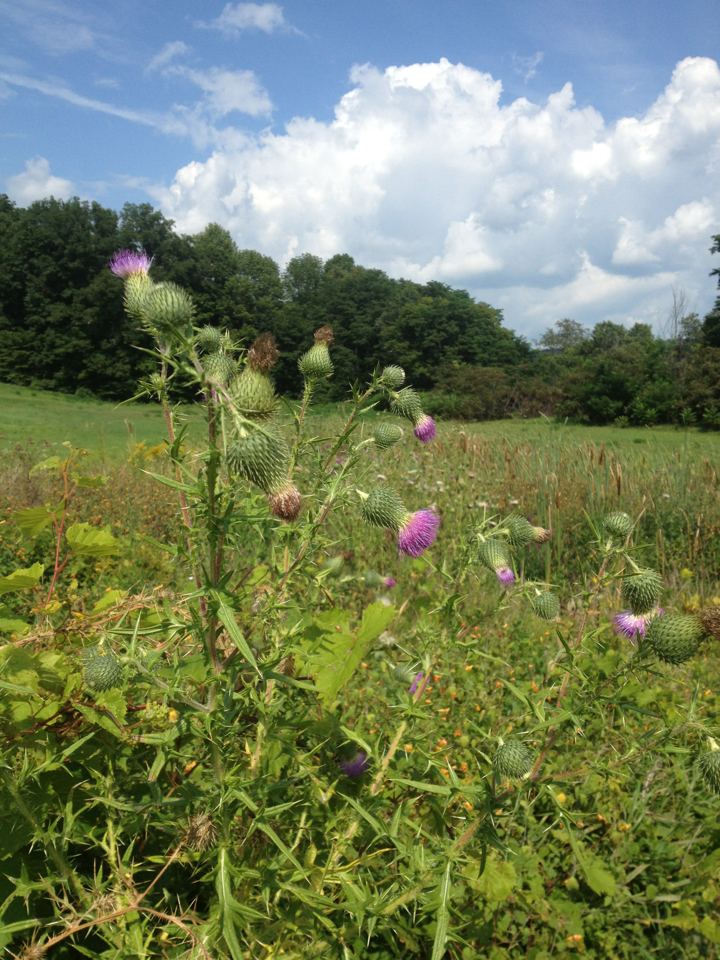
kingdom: Plantae
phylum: Tracheophyta
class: Magnoliopsida
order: Asterales
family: Asteraceae
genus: Cirsium
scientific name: Cirsium vulgare
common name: Bull thistle
